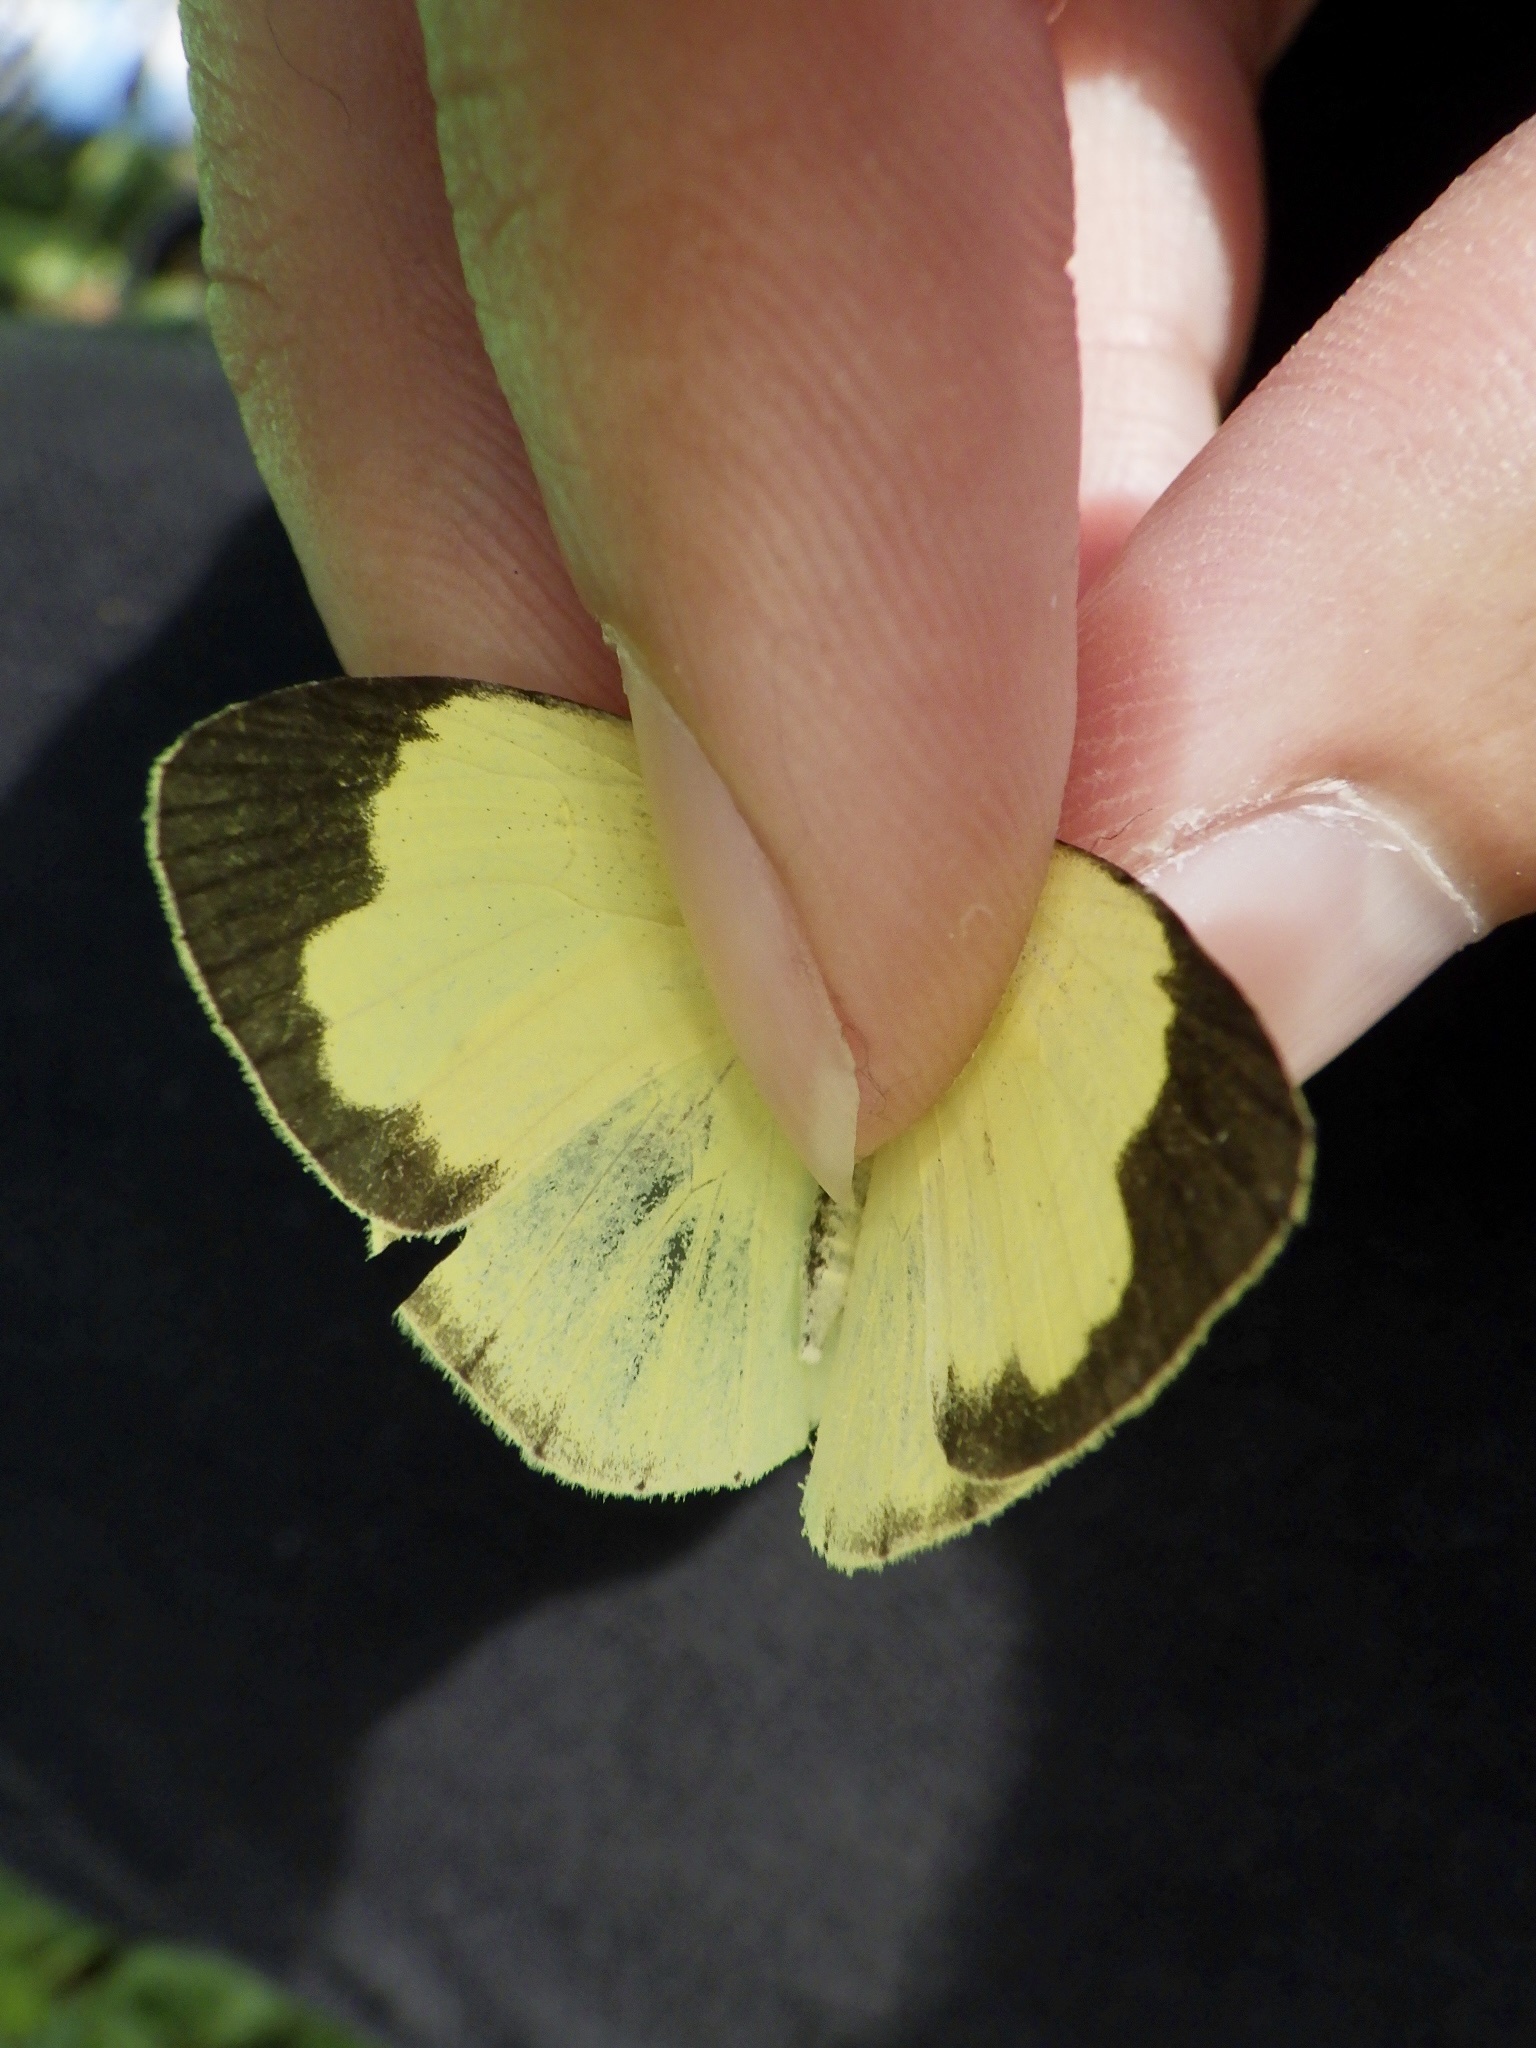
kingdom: Animalia
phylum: Arthropoda
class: Insecta
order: Lepidoptera
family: Pieridae
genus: Eurema
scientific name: Eurema mandarina
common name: Japanese common grass yellow
